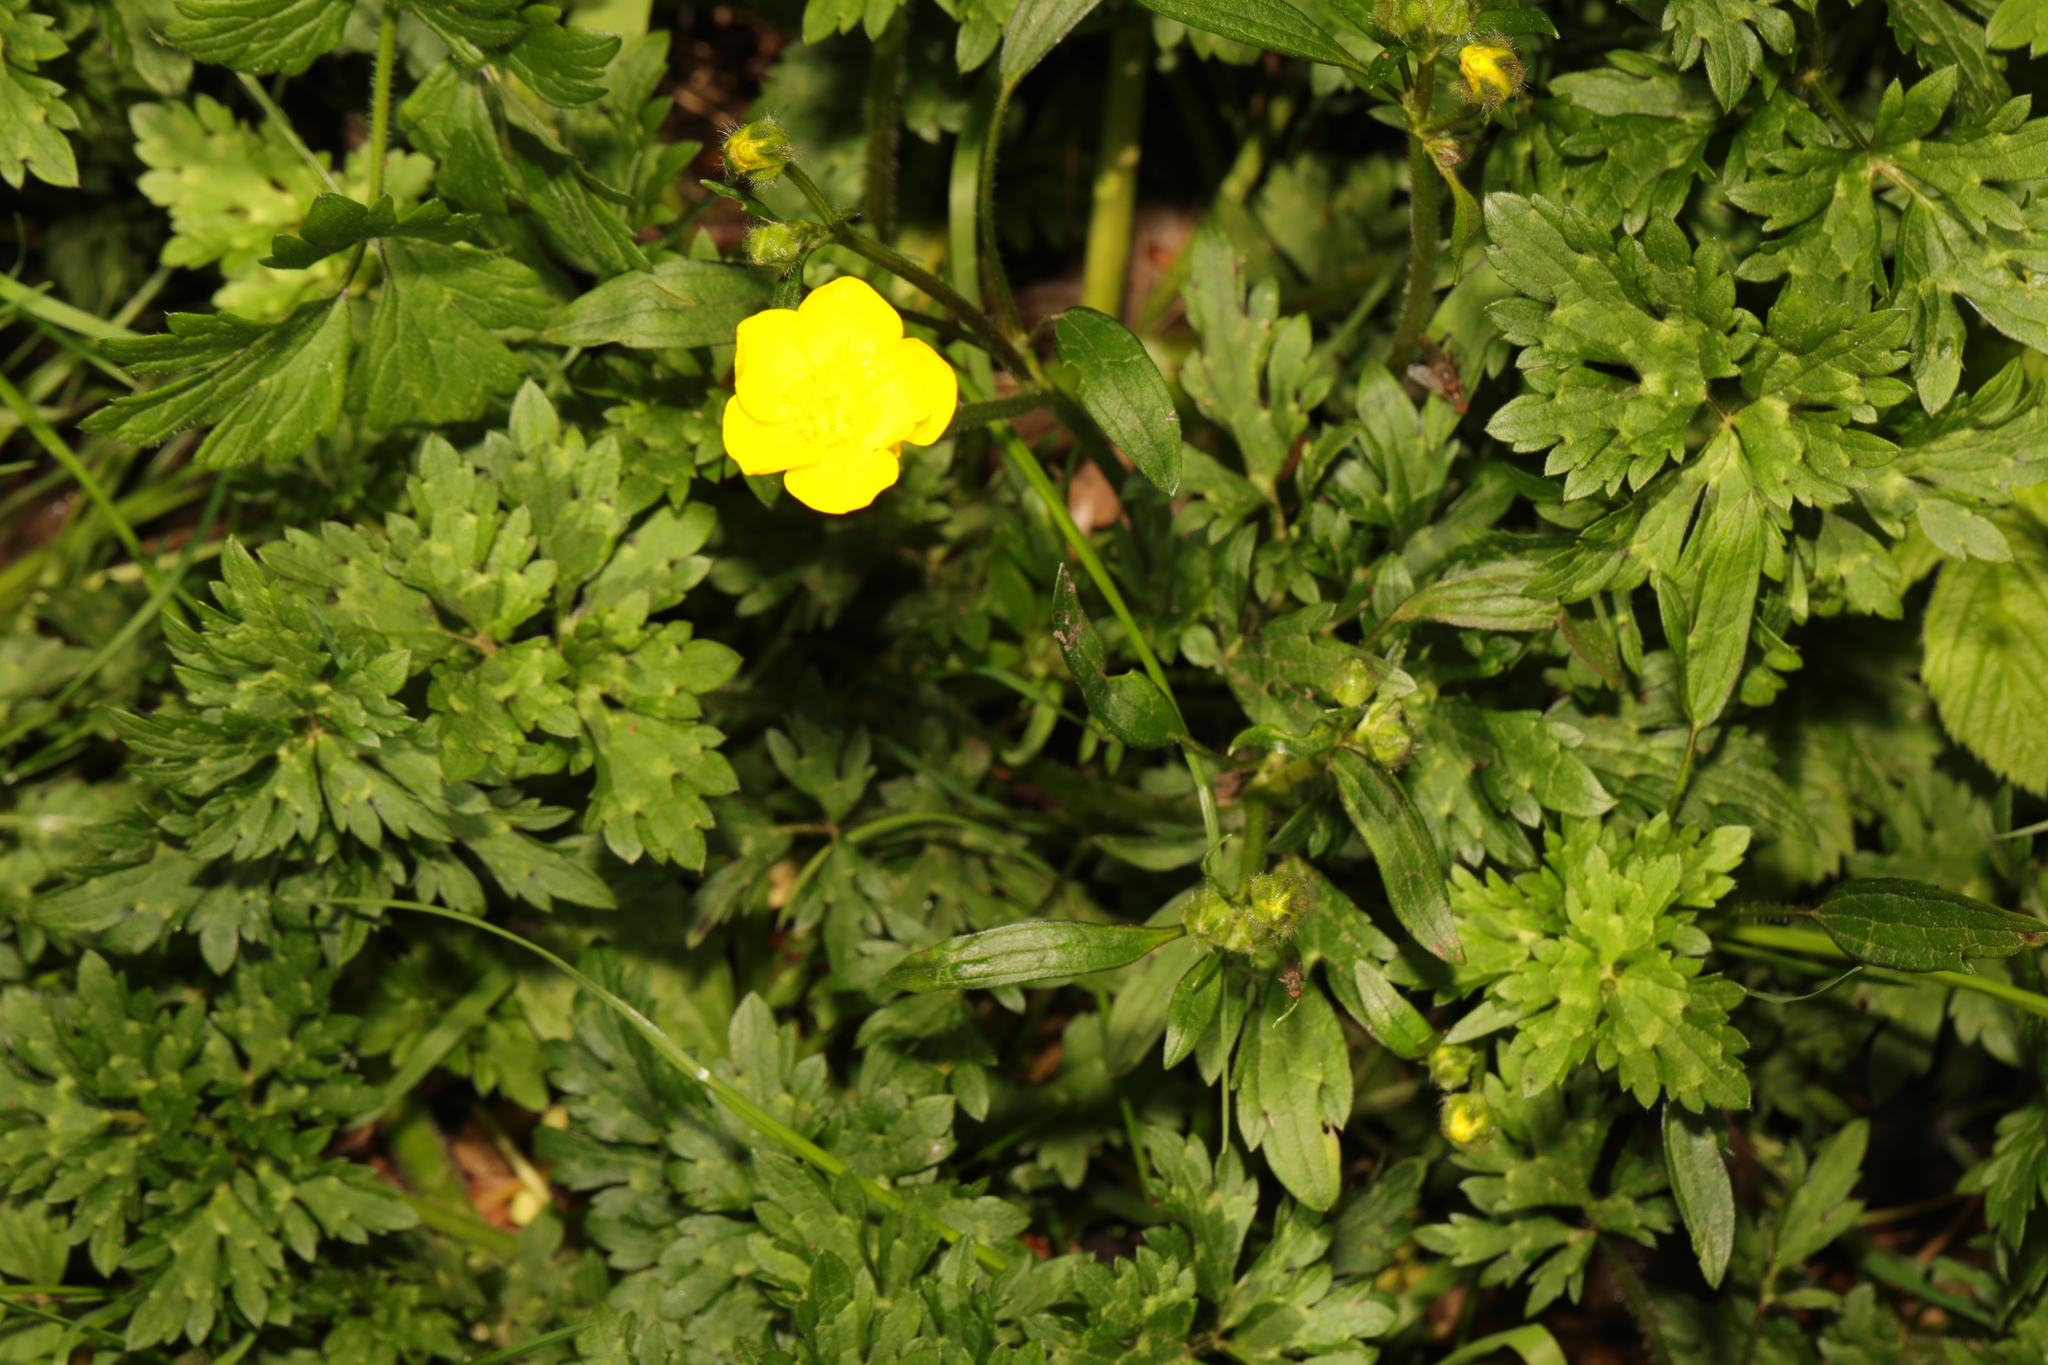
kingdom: Plantae
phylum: Tracheophyta
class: Magnoliopsida
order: Ranunculales
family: Ranunculaceae
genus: Ranunculus
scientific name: Ranunculus repens
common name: Creeping buttercup
